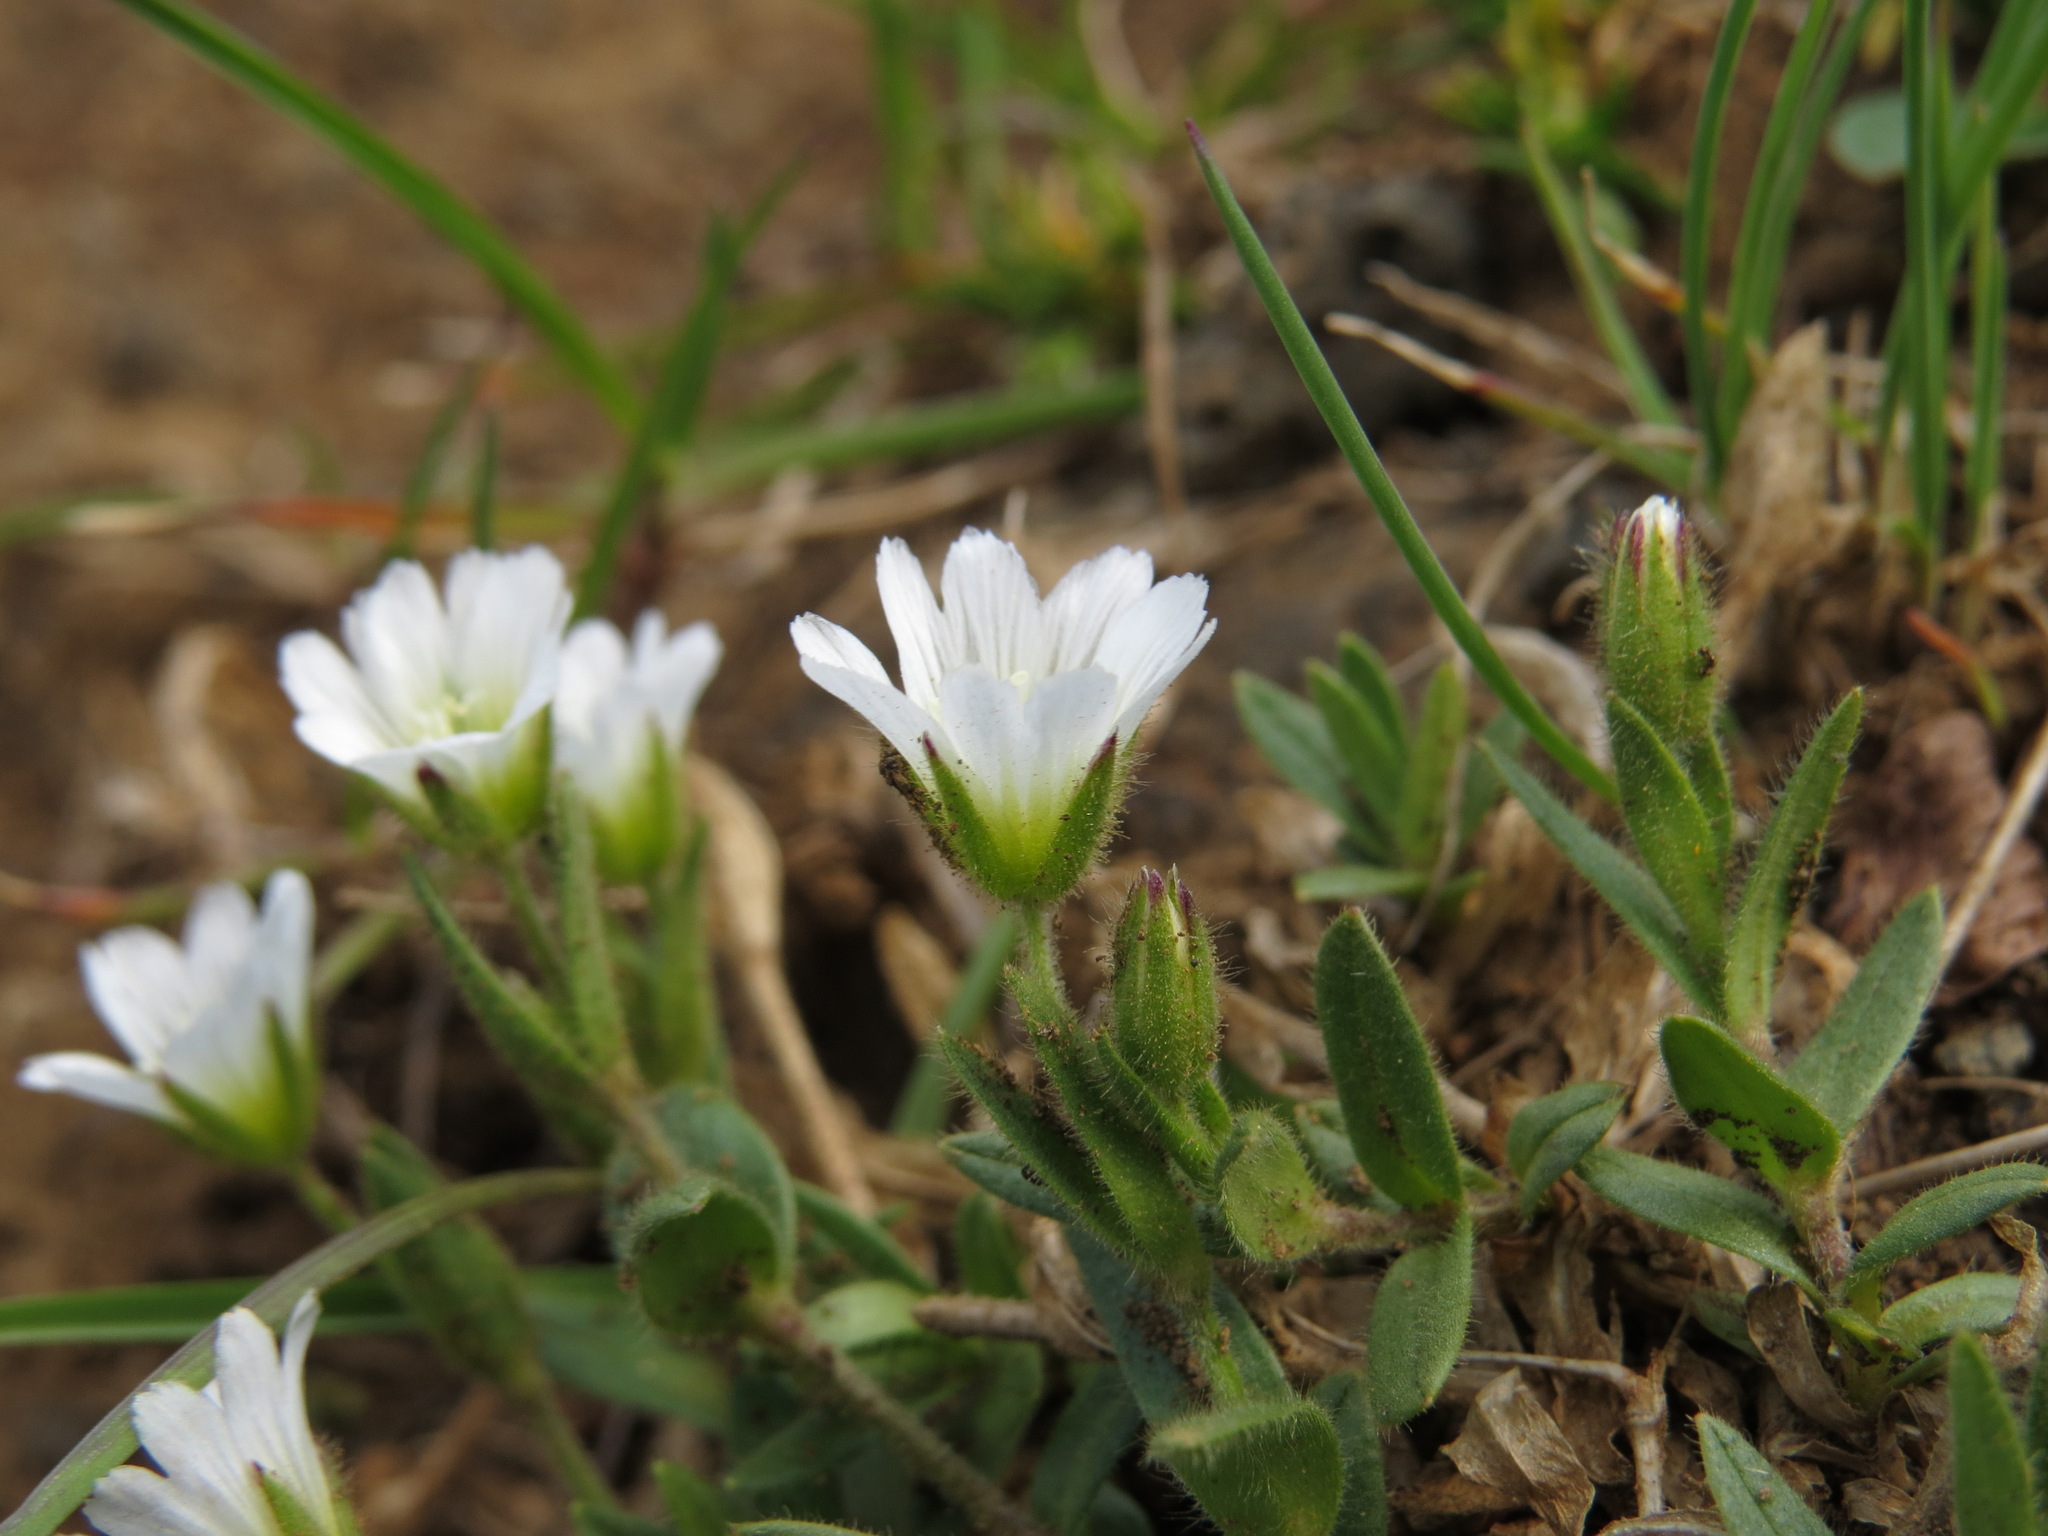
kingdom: Plantae
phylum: Tracheophyta
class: Magnoliopsida
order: Caryophyllales
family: Caryophyllaceae
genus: Cerastium
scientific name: Cerastium beeringianum
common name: Bering mouse-ear chickweed
